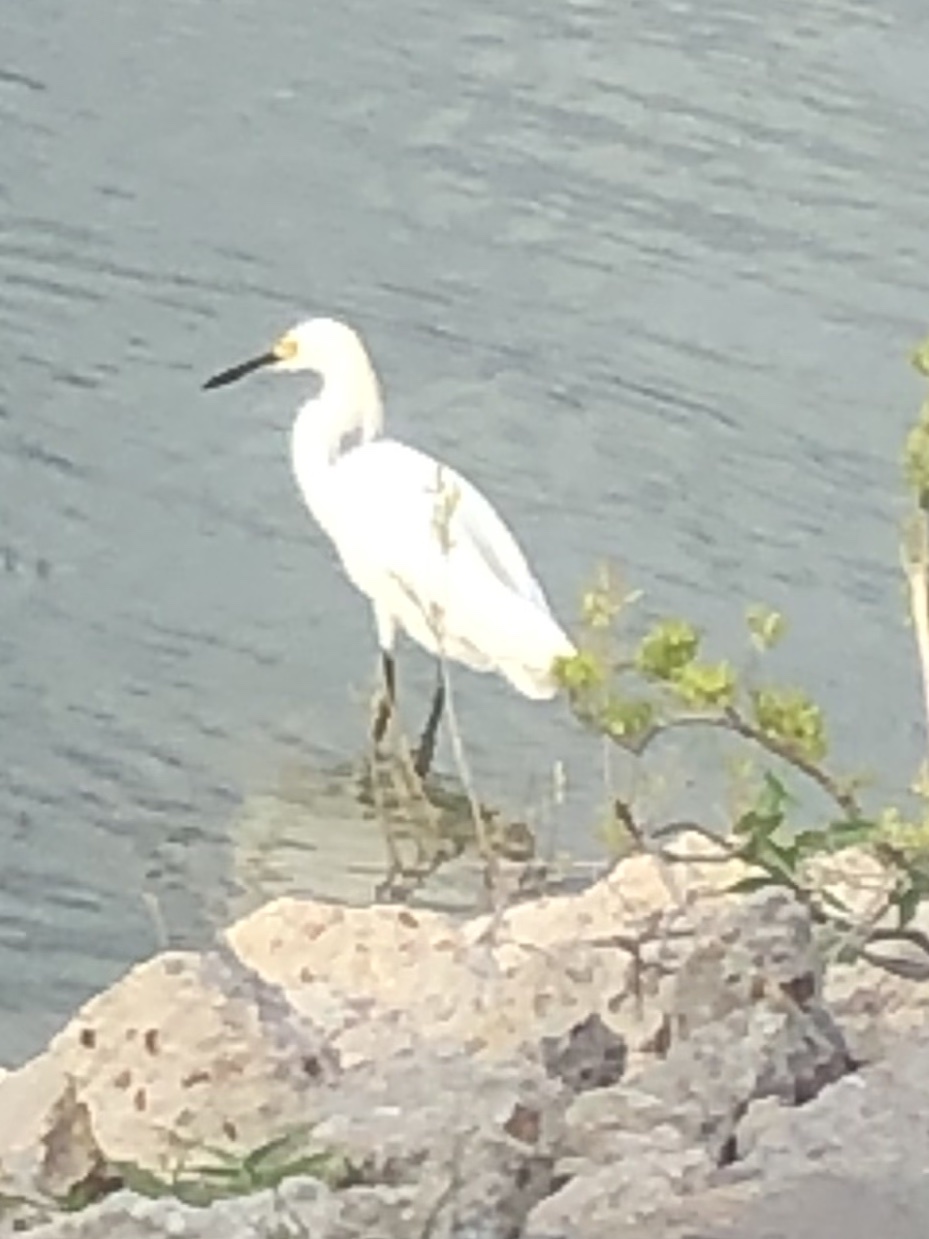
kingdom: Animalia
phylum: Chordata
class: Aves
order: Pelecaniformes
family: Ardeidae
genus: Egretta
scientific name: Egretta thula
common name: Snowy egret
